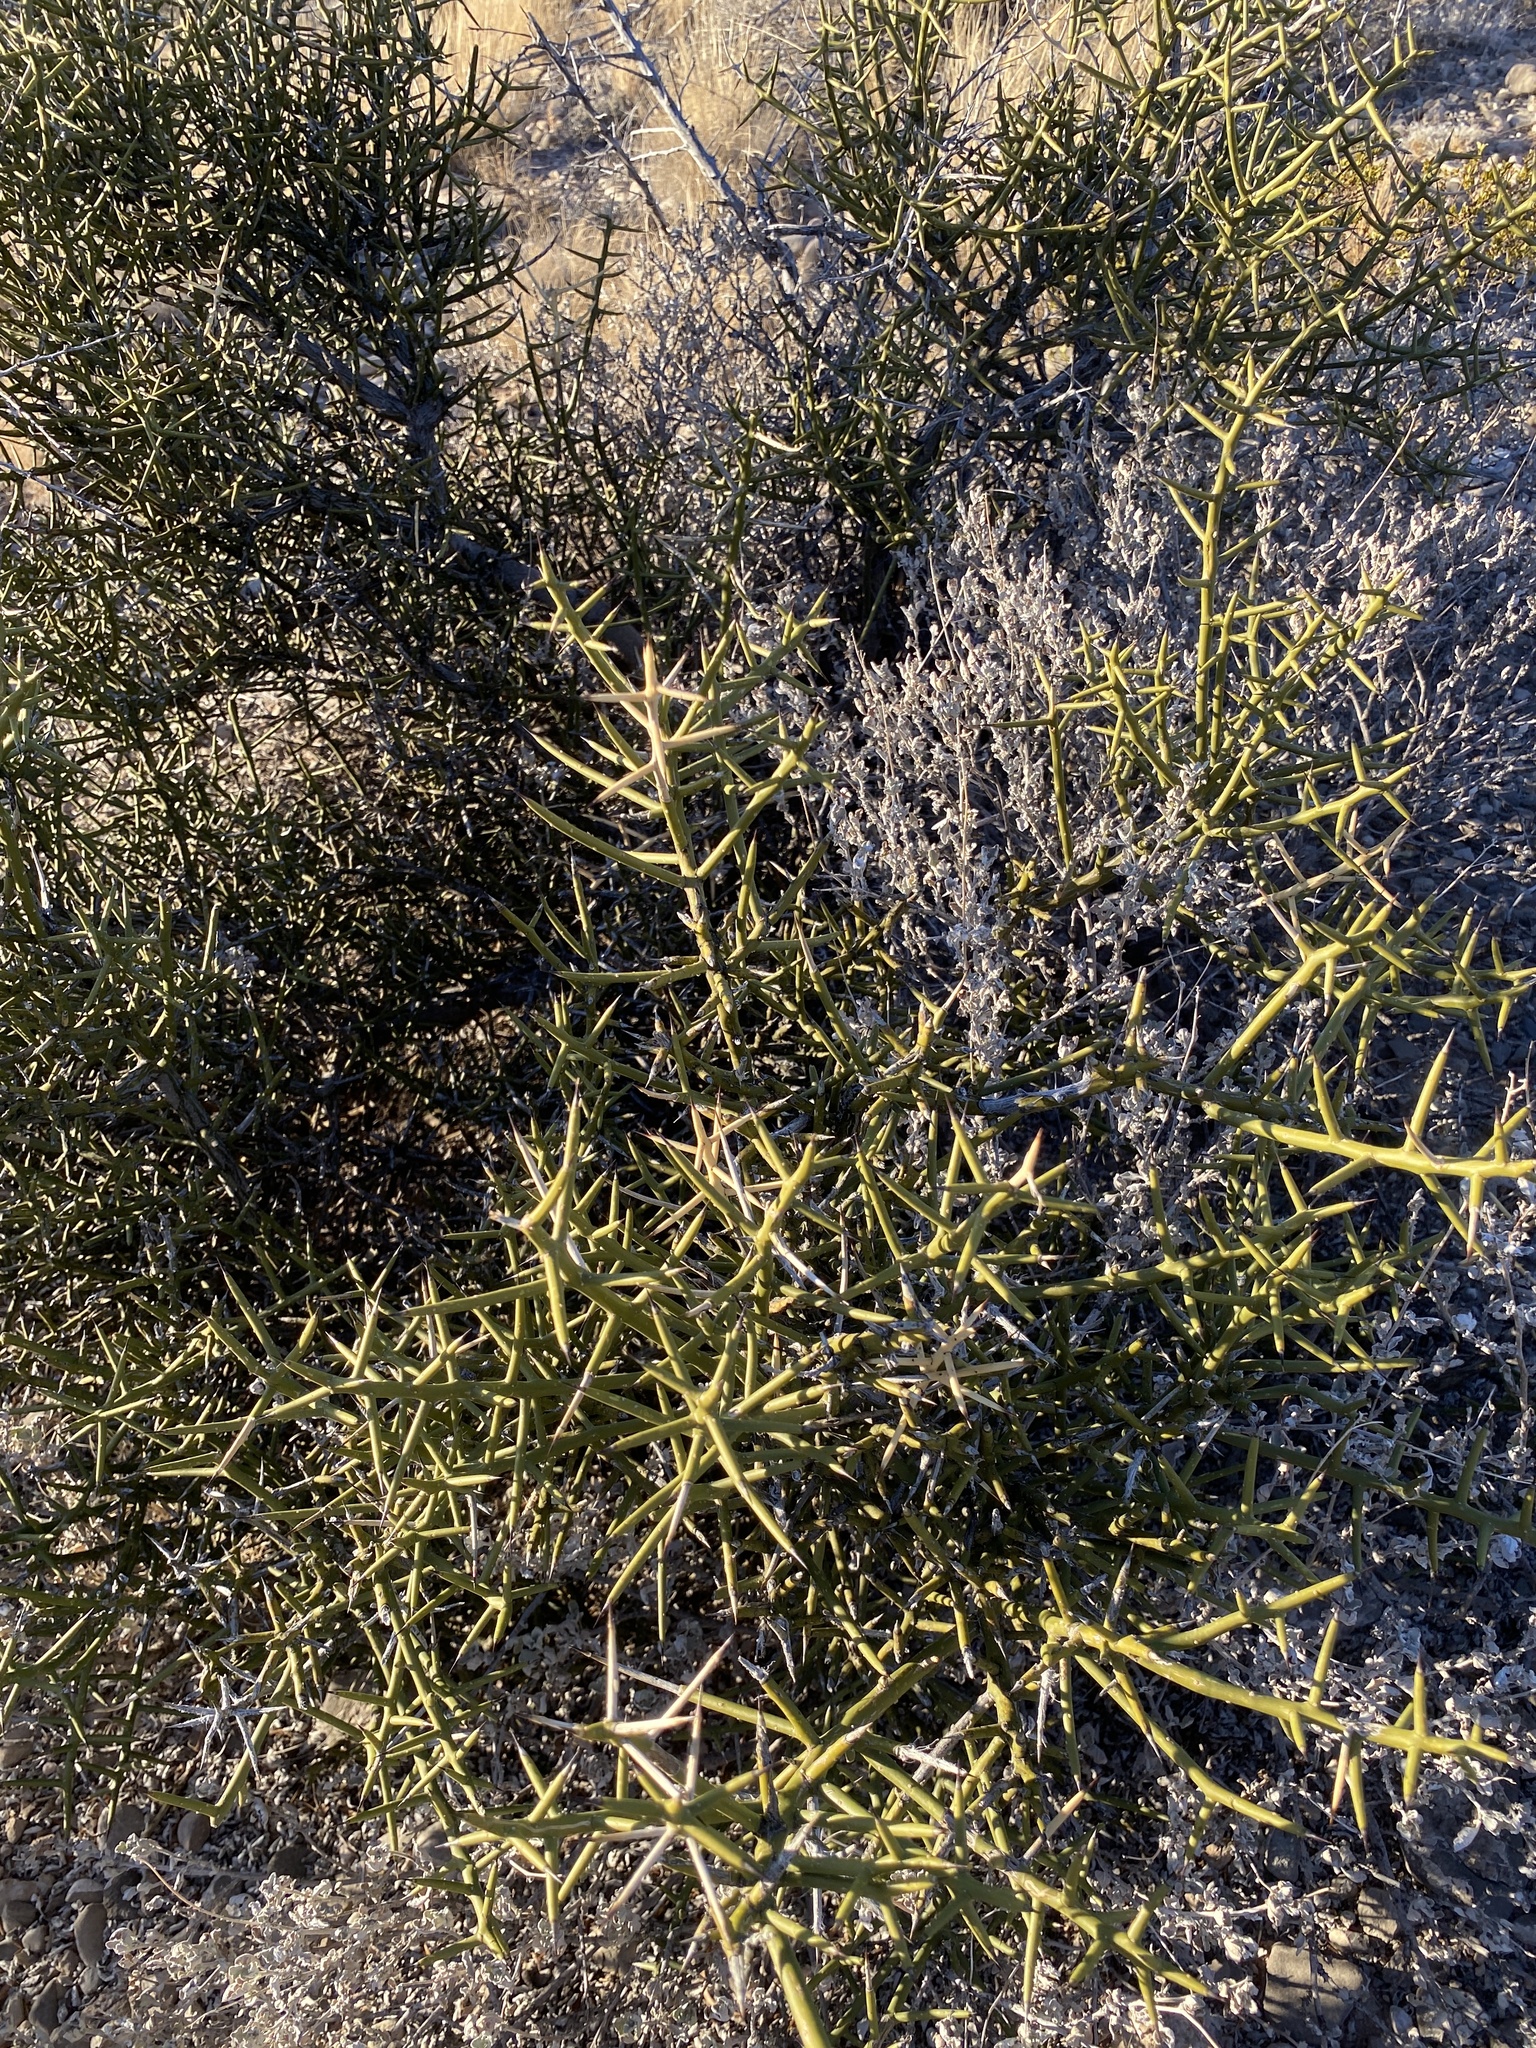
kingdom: Plantae
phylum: Tracheophyta
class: Magnoliopsida
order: Brassicales
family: Koeberliniaceae
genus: Koeberlinia
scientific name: Koeberlinia spinosa
